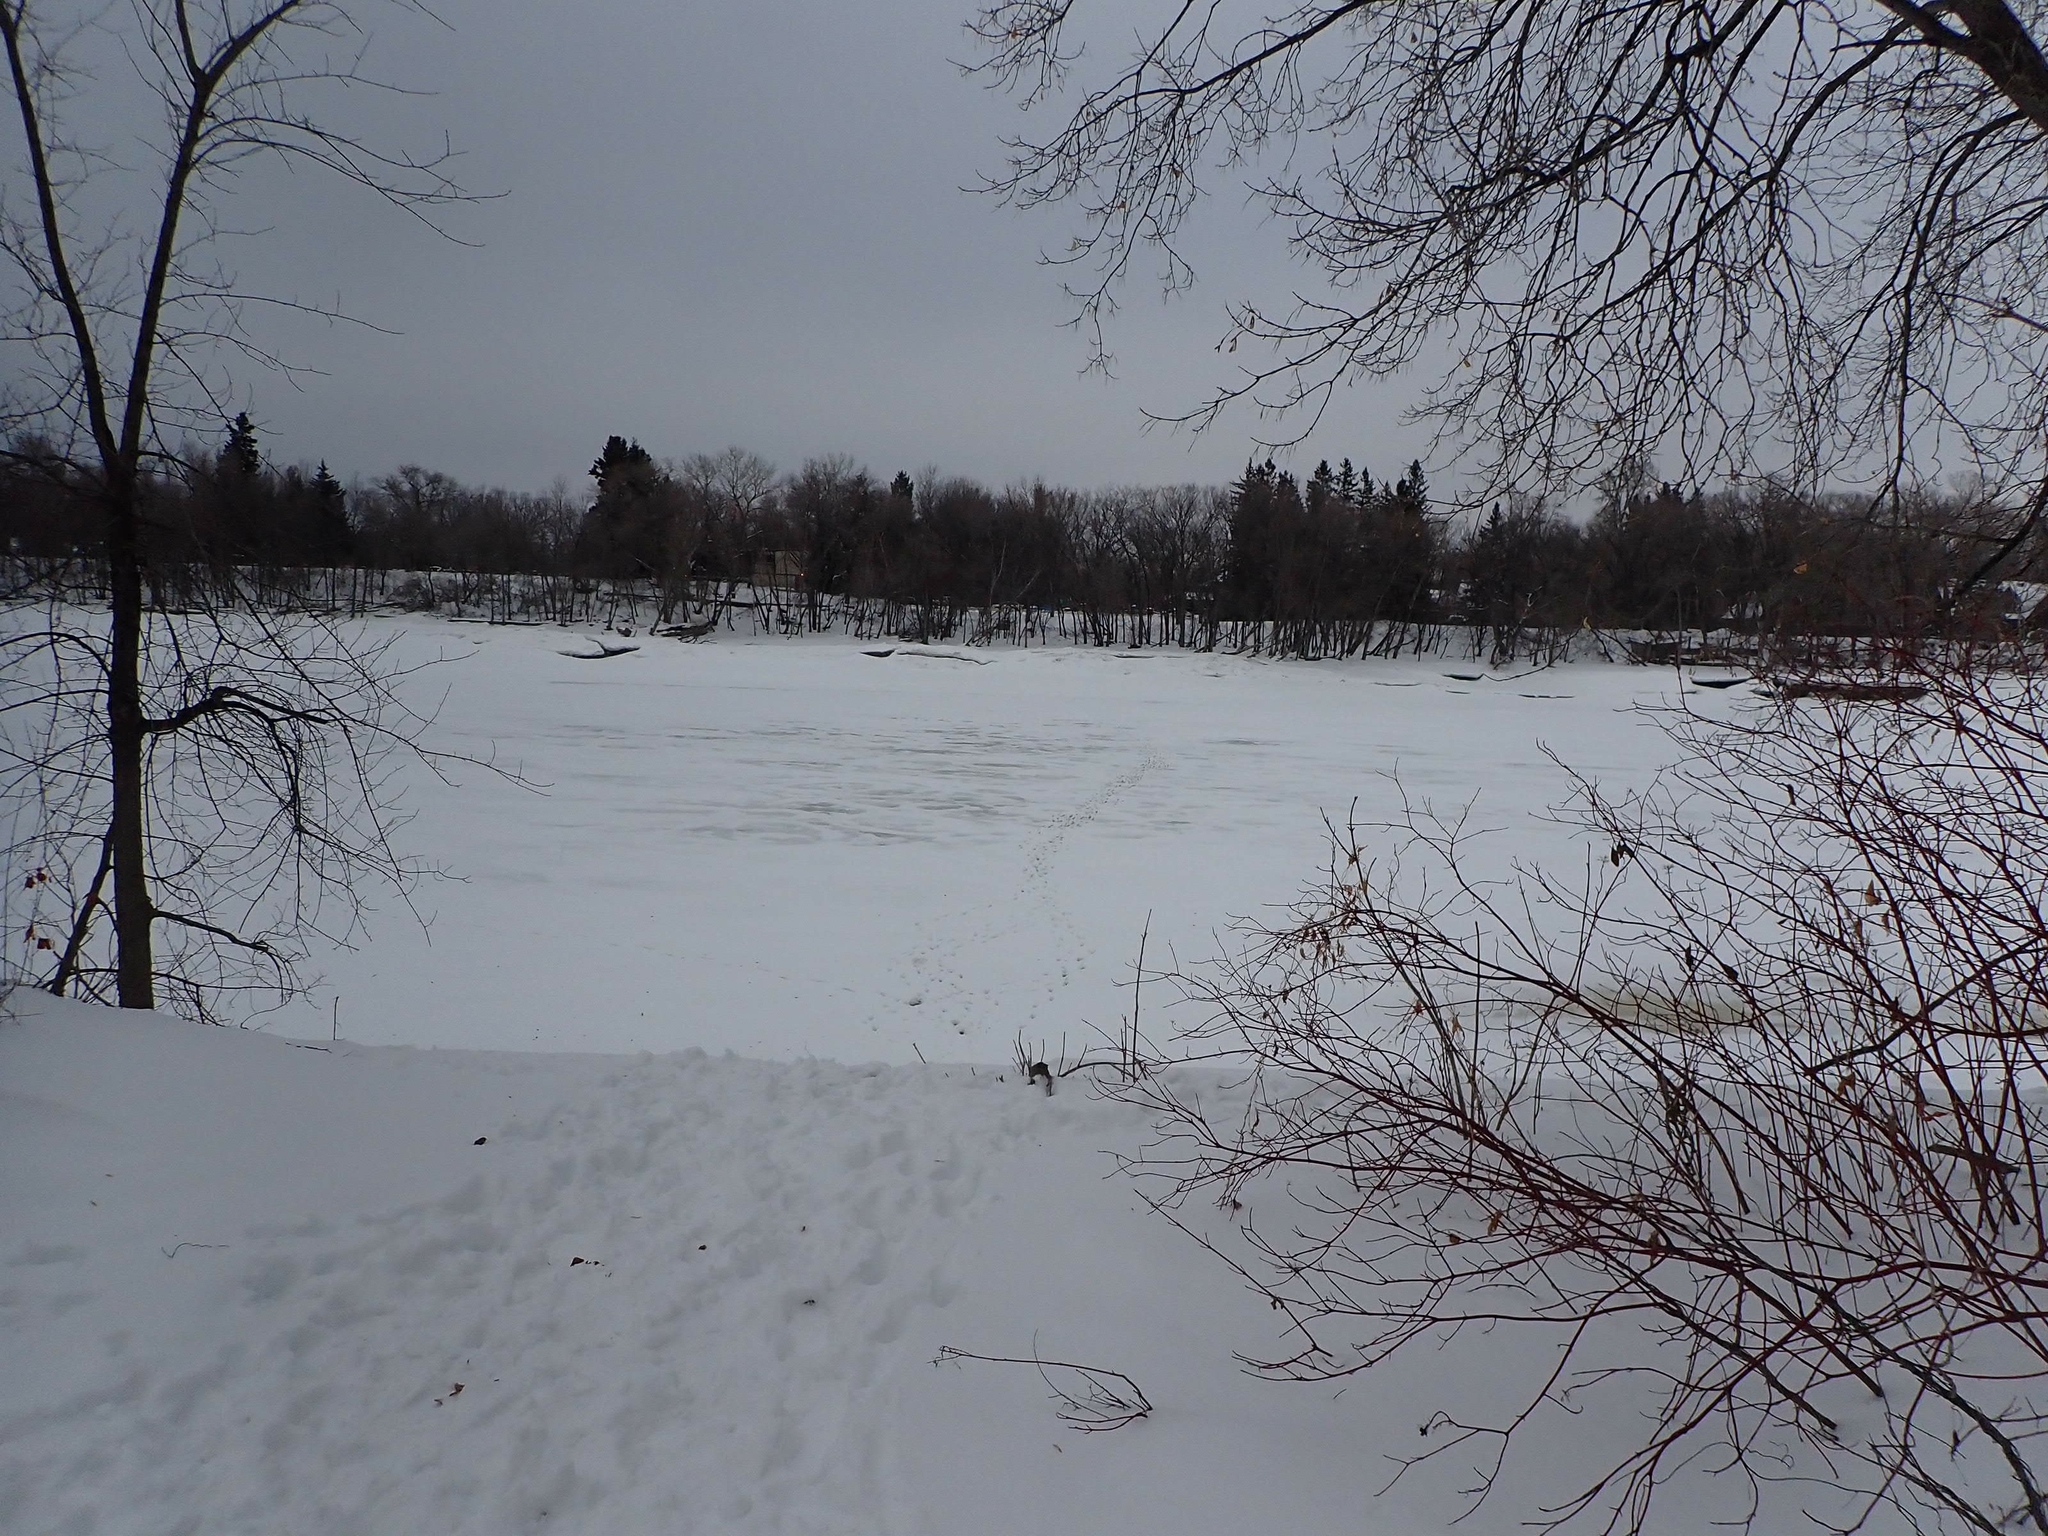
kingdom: Animalia
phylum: Chordata
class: Mammalia
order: Artiodactyla
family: Cervidae
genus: Odocoileus
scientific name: Odocoileus virginianus
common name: White-tailed deer
